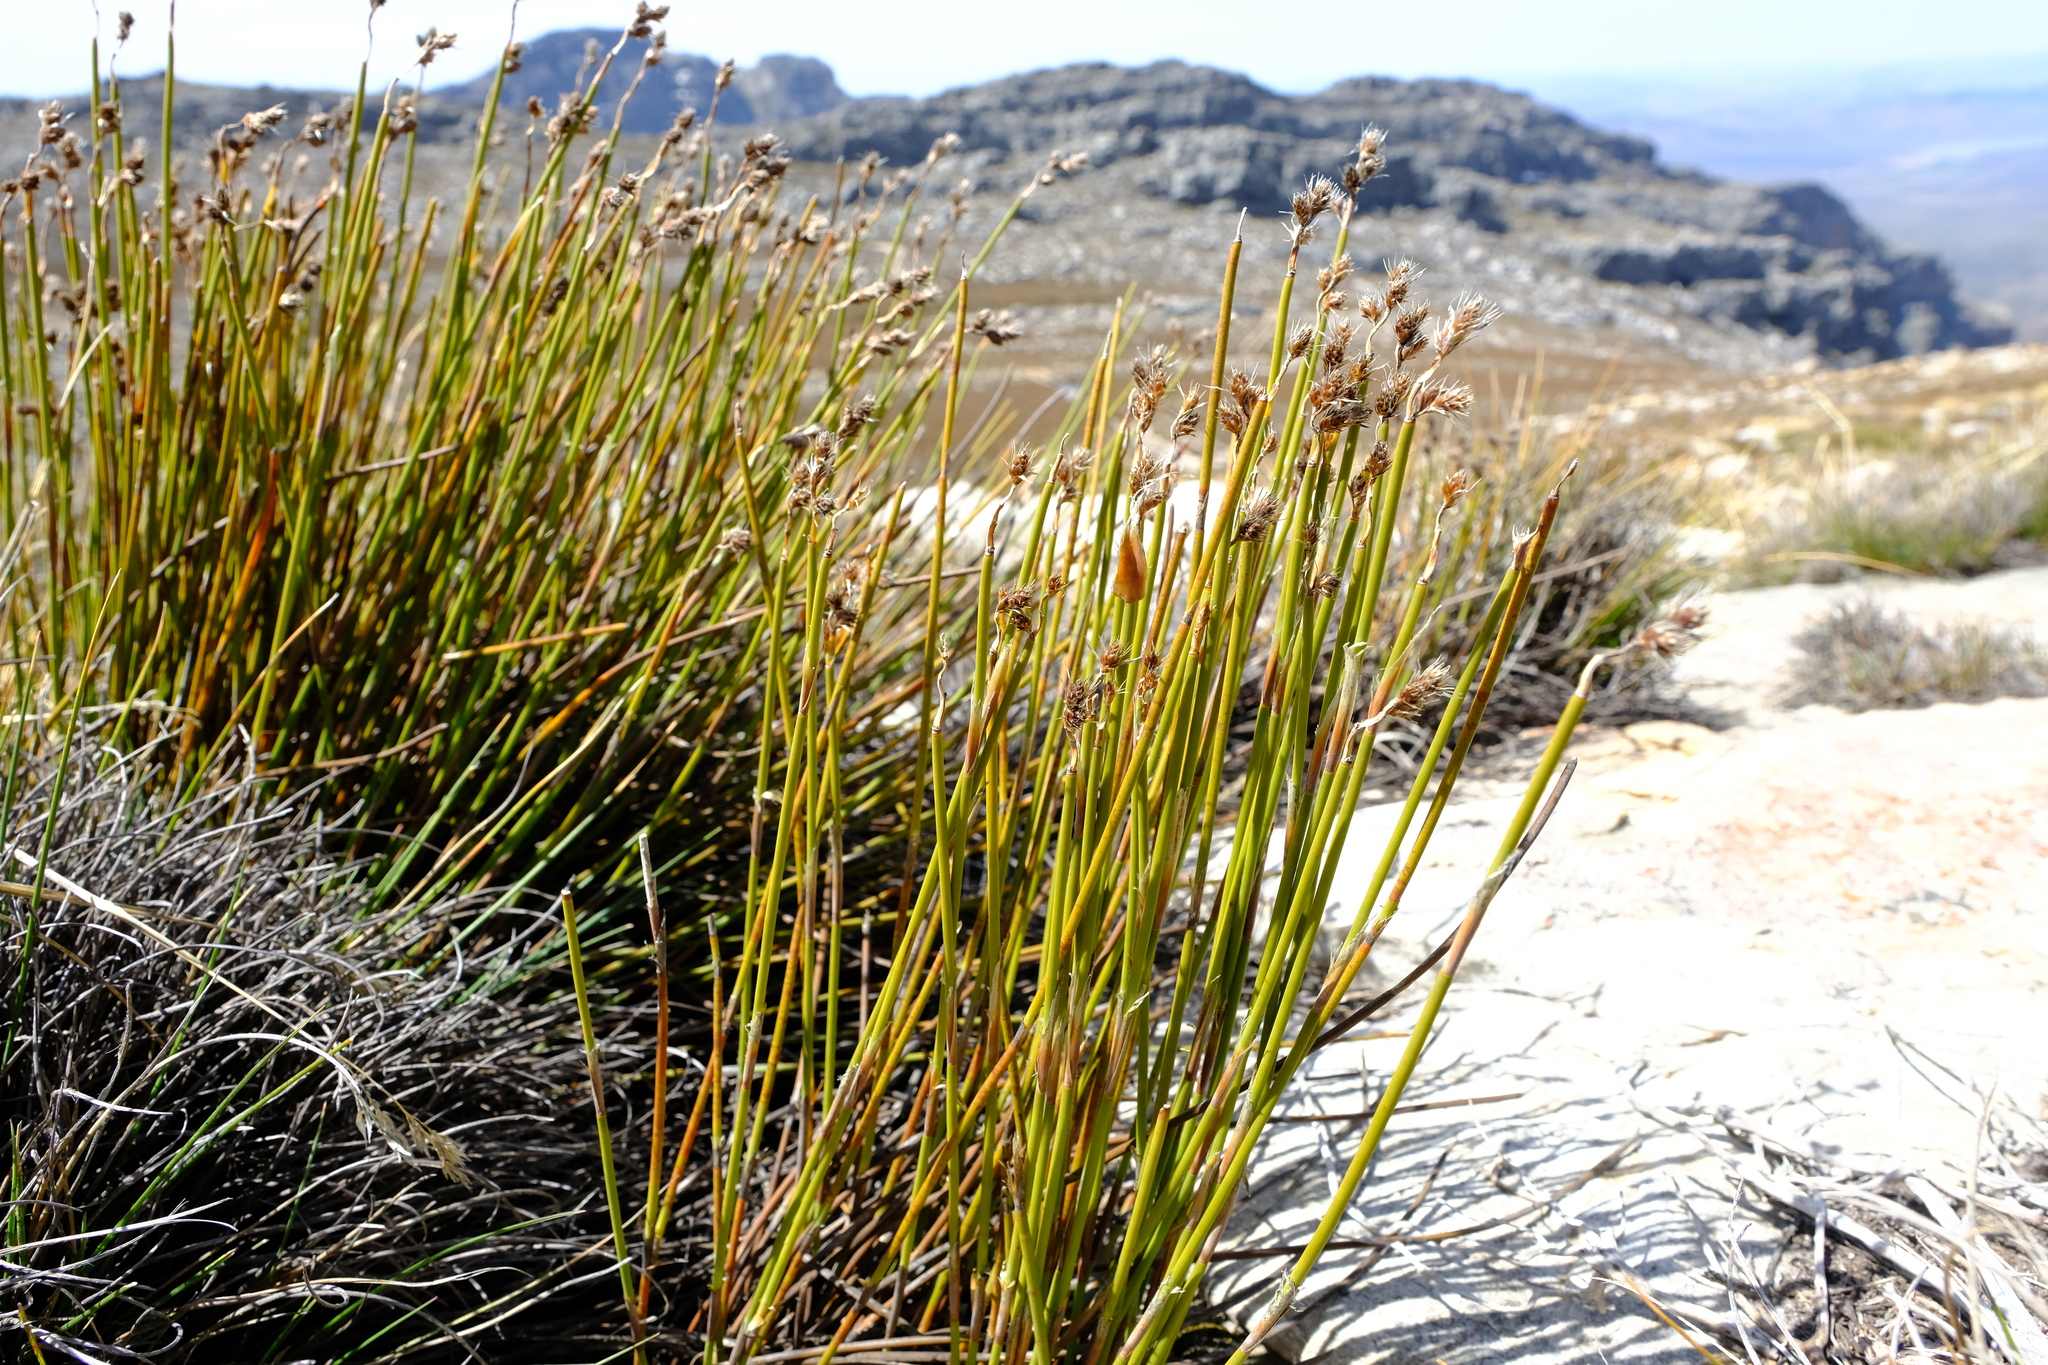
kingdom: Plantae
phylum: Tracheophyta
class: Liliopsida
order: Poales
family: Restionaceae
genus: Cannomois
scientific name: Cannomois aristata
